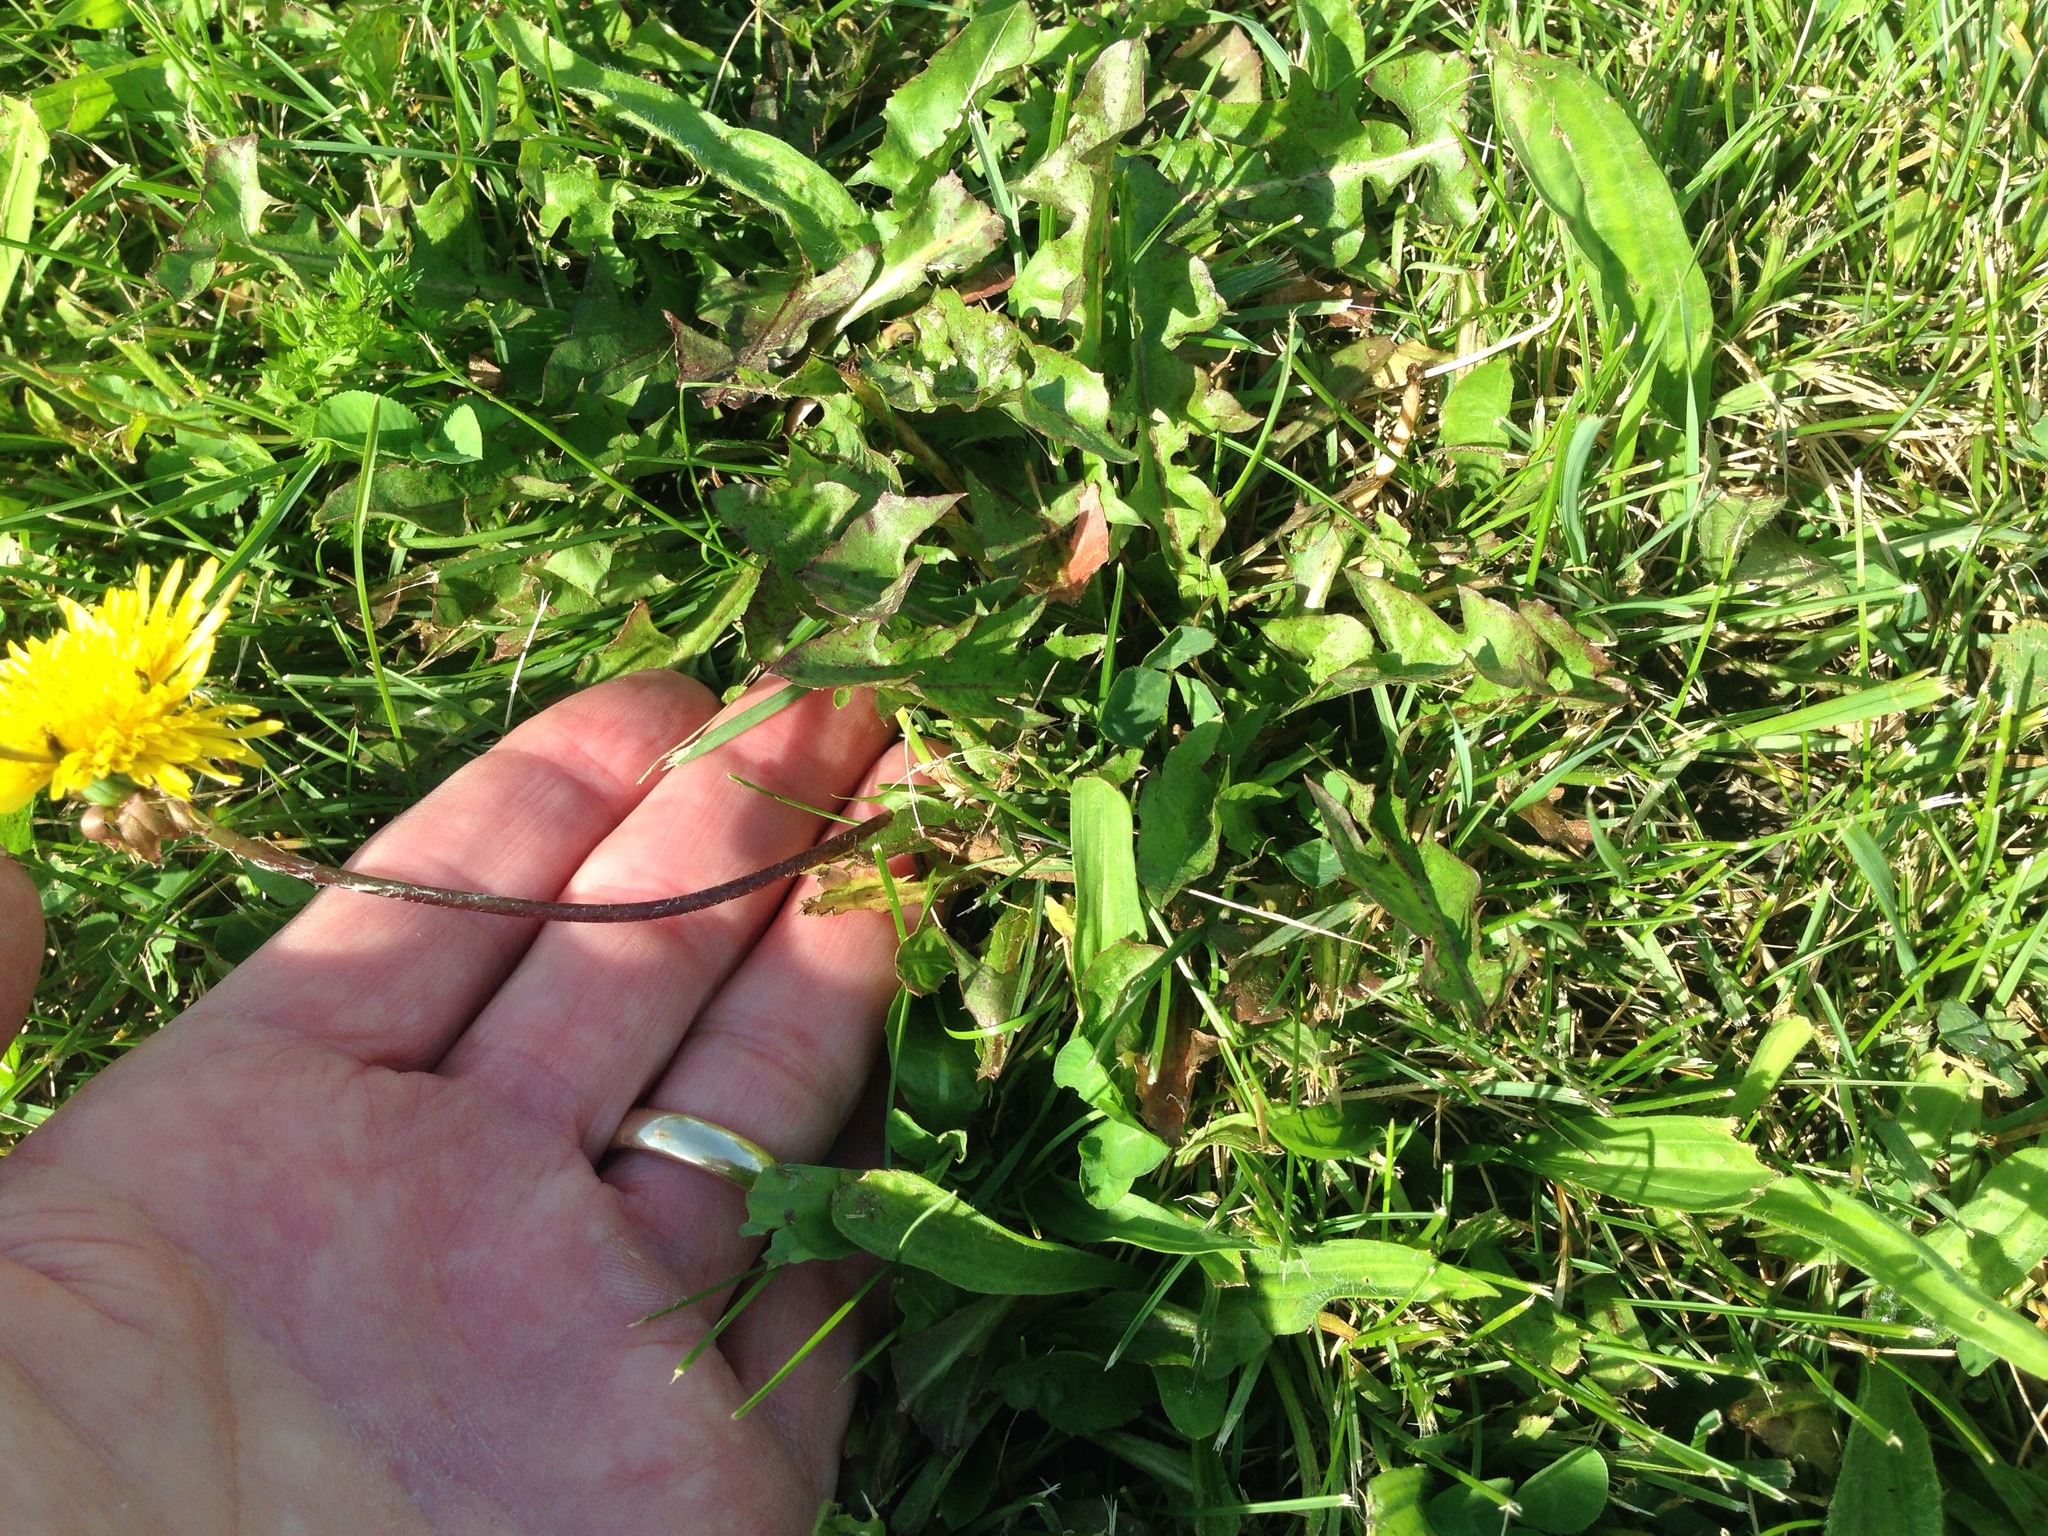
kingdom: Plantae
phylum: Tracheophyta
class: Magnoliopsida
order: Asterales
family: Asteraceae
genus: Taraxacum
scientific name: Taraxacum officinale
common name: Common dandelion
